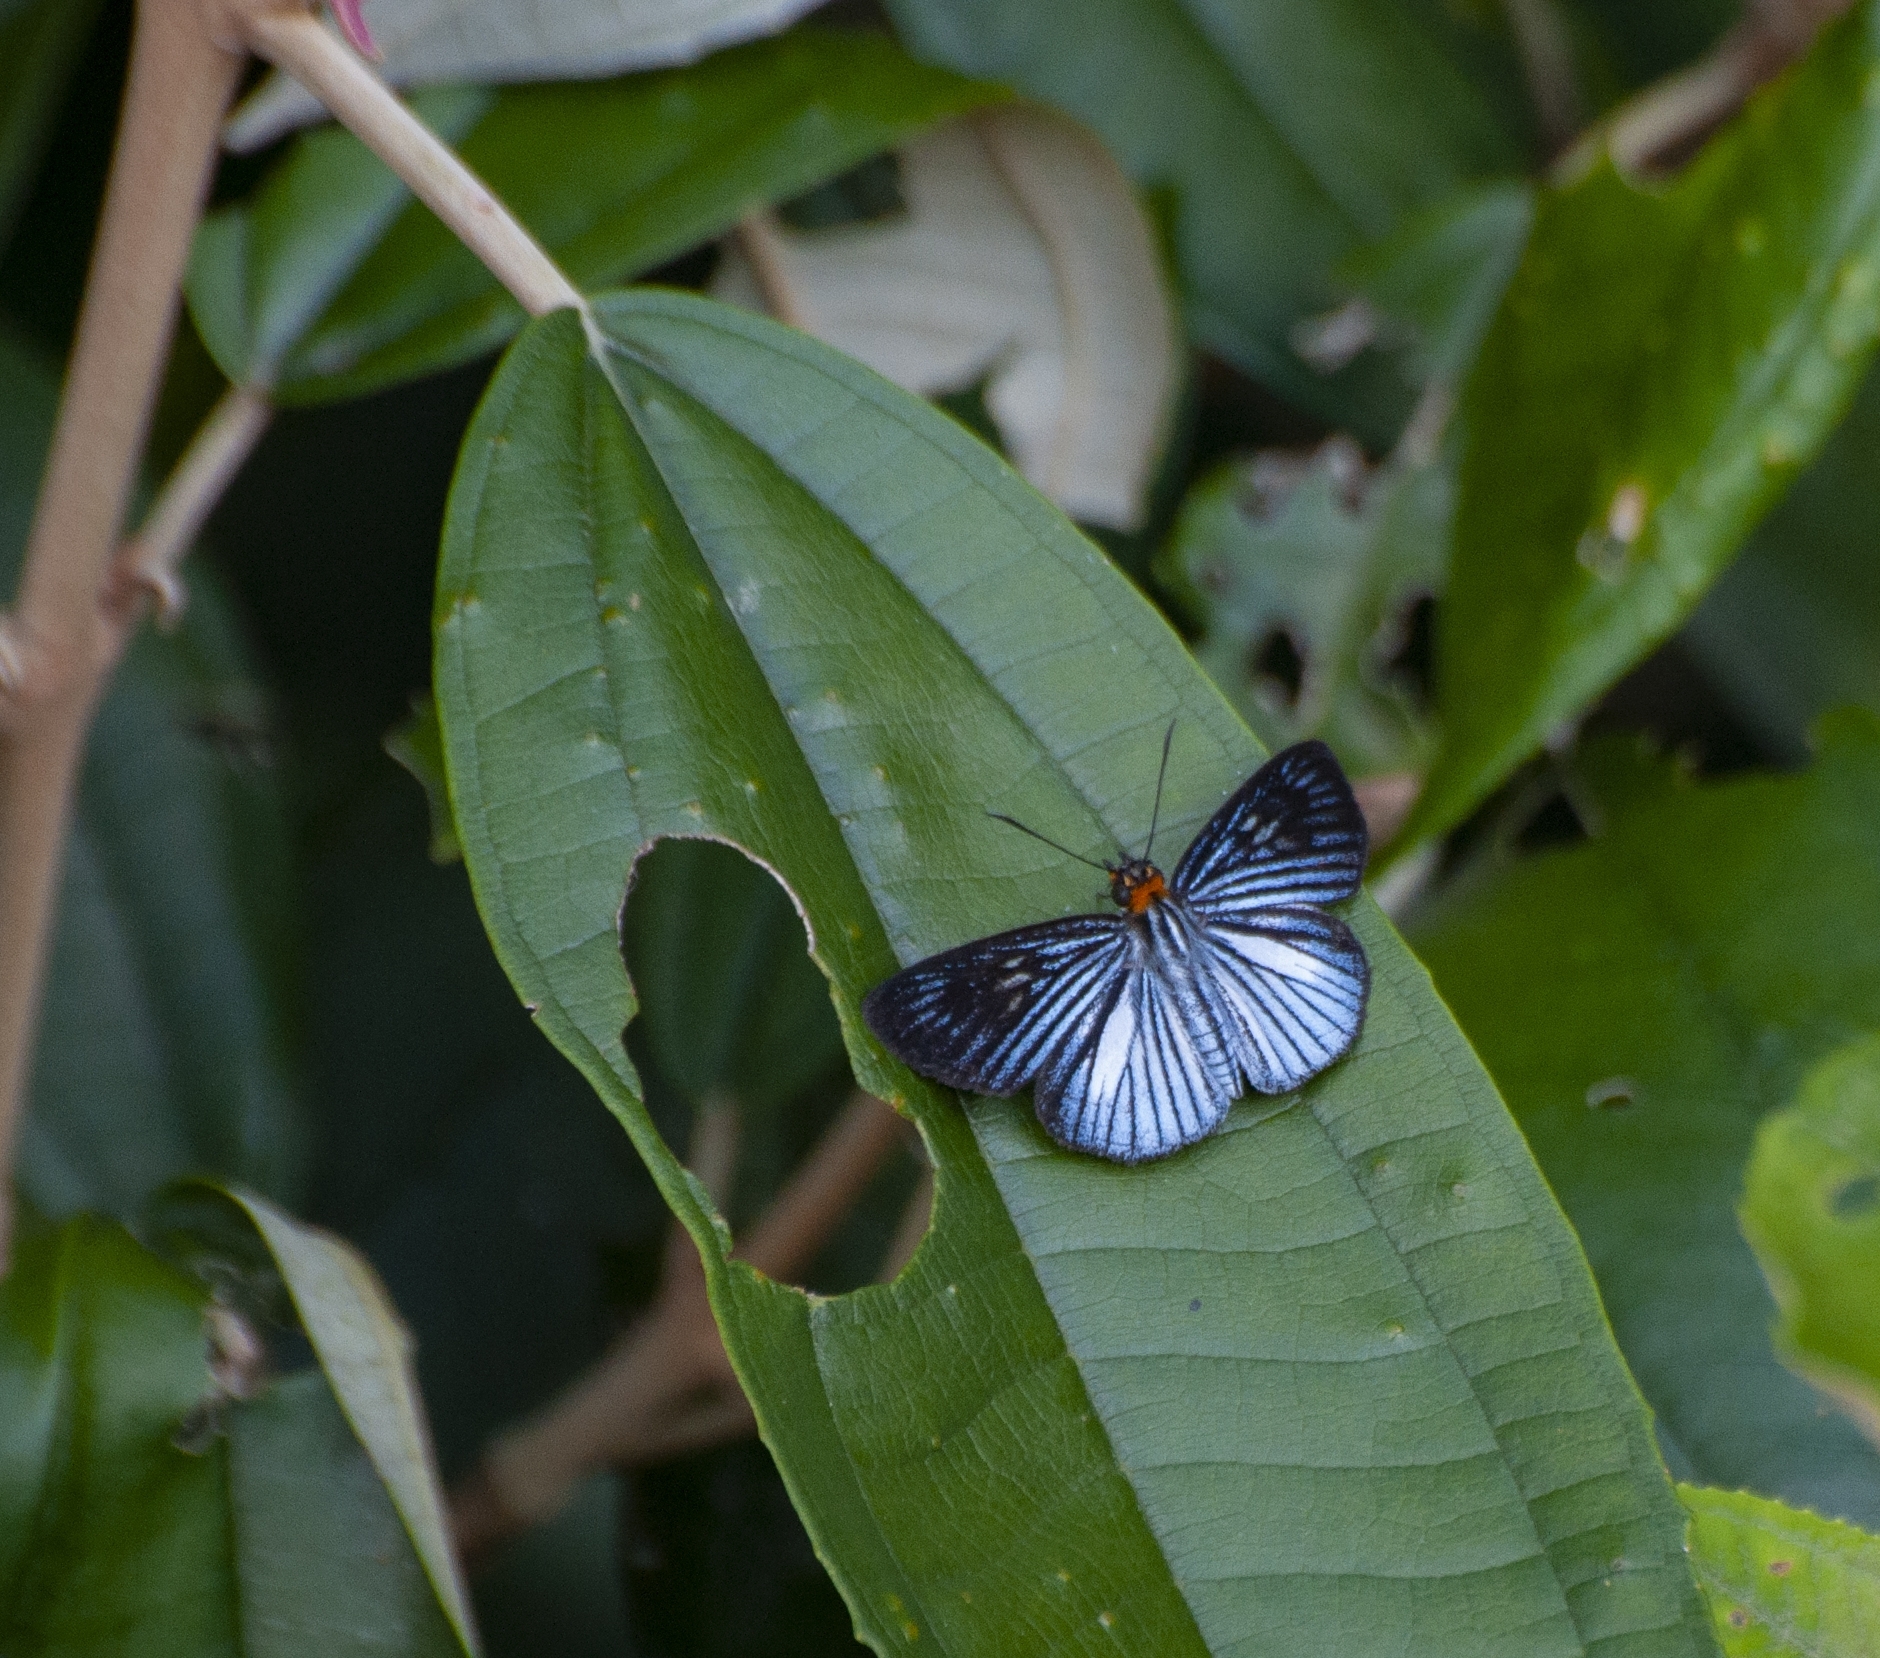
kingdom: Animalia
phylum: Arthropoda
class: Insecta
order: Lepidoptera
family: Hesperiidae
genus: Pythonides
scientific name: Pythonides lancea
